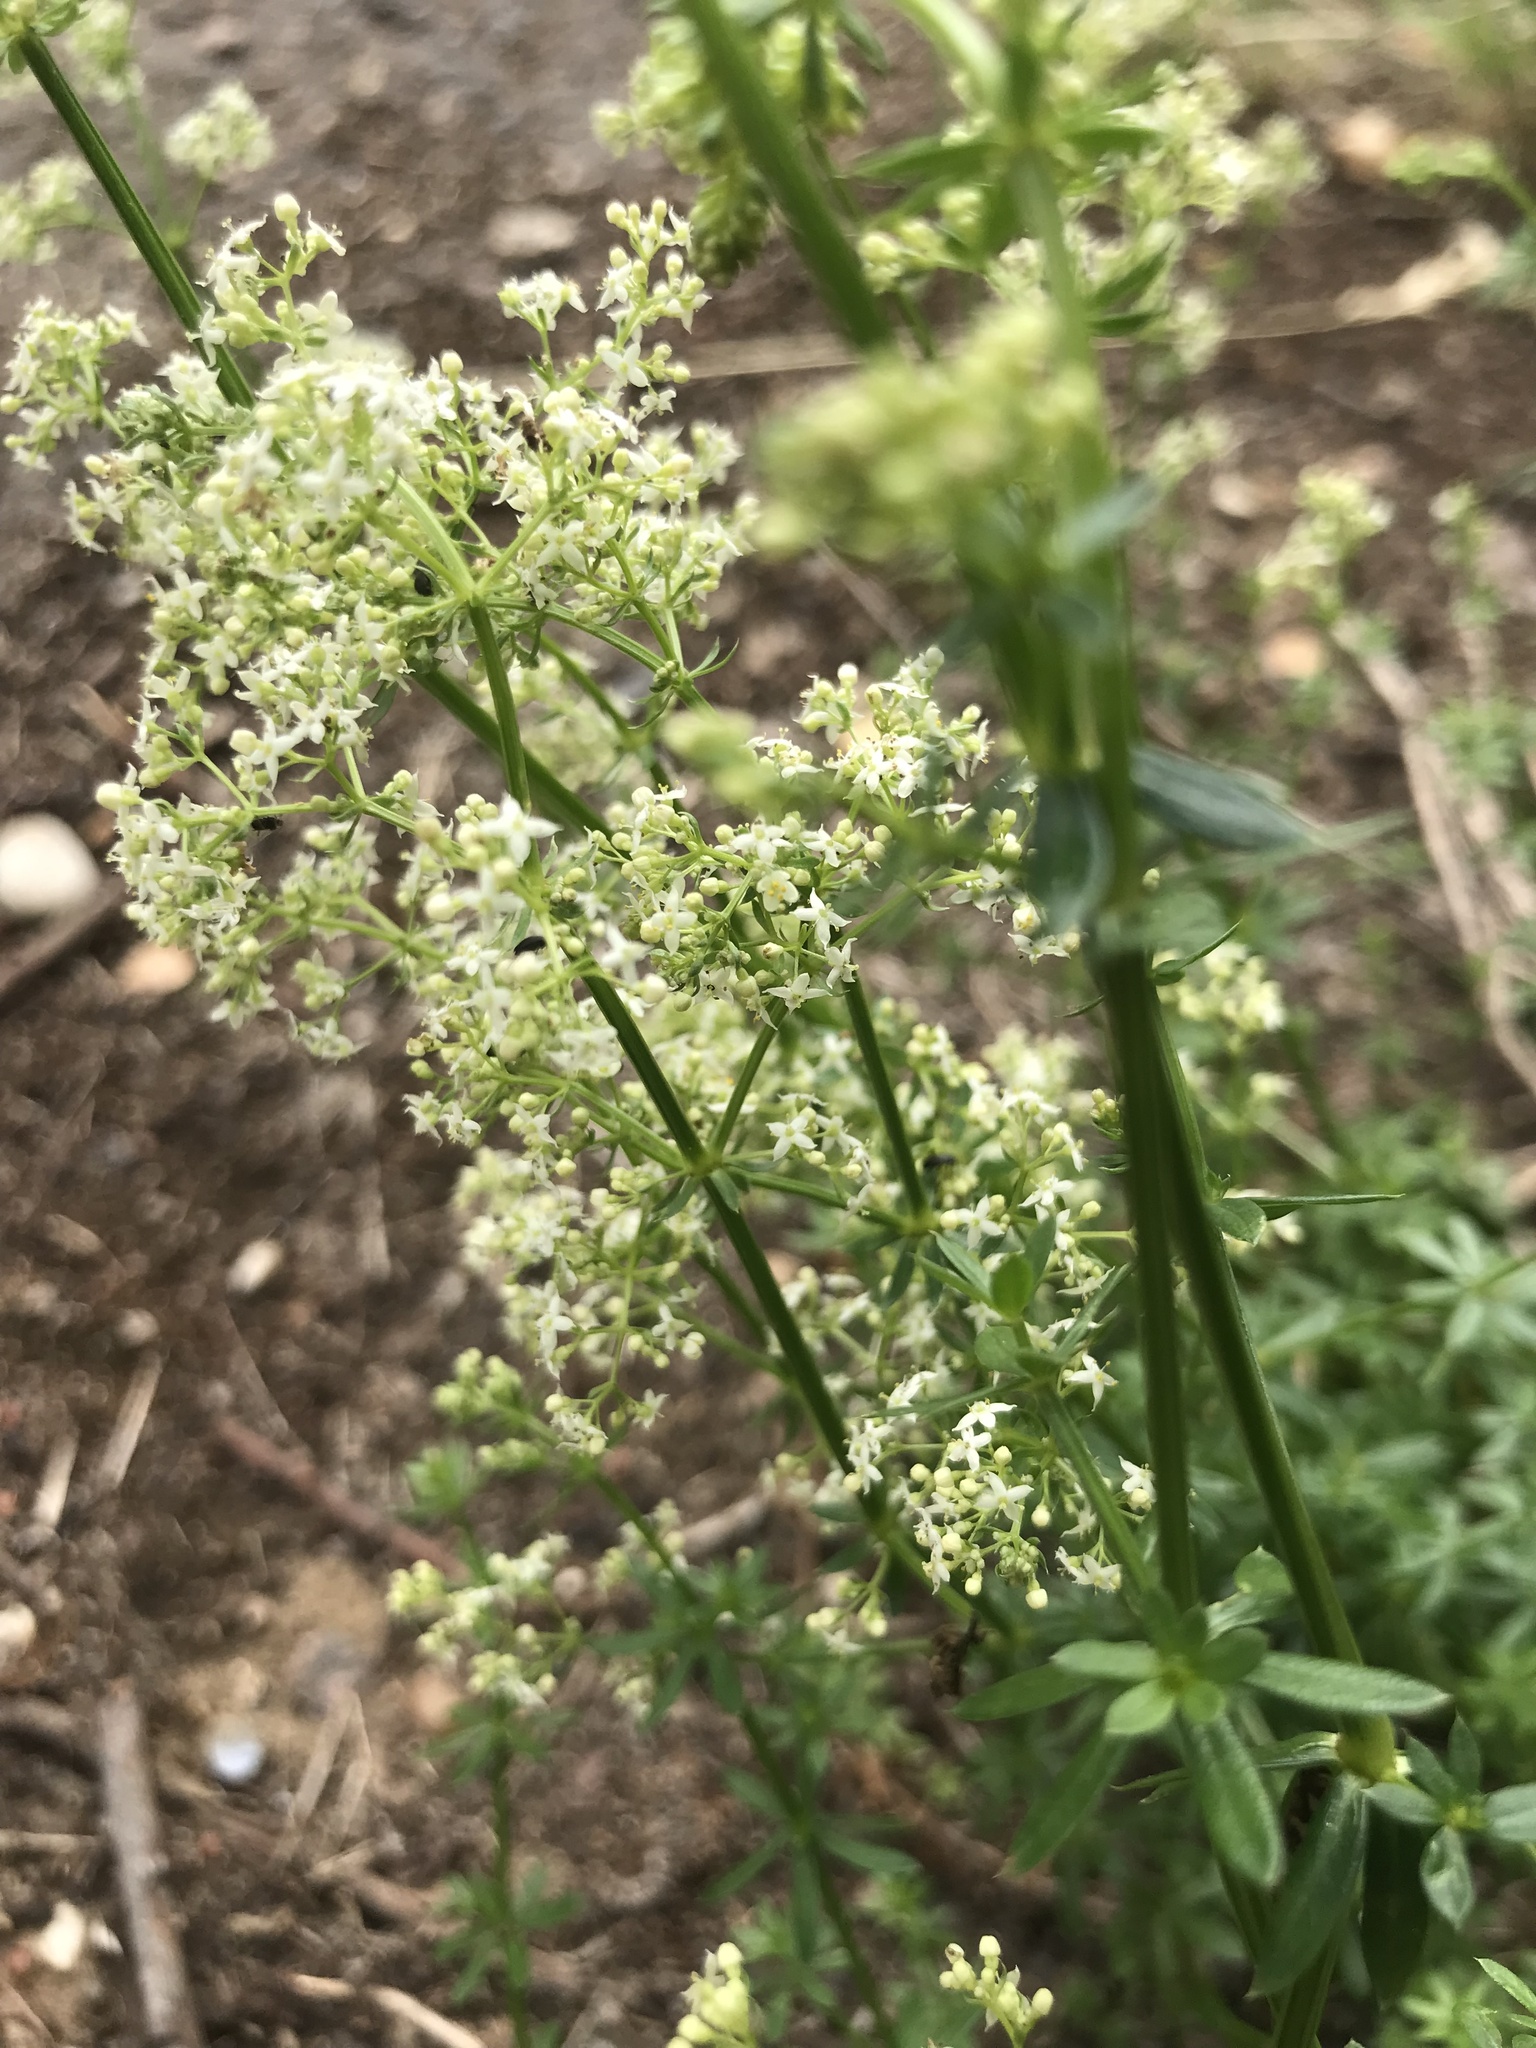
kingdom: Plantae
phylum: Tracheophyta
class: Magnoliopsida
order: Gentianales
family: Rubiaceae
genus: Galium
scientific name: Galium mollugo
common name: Hedge bedstraw
